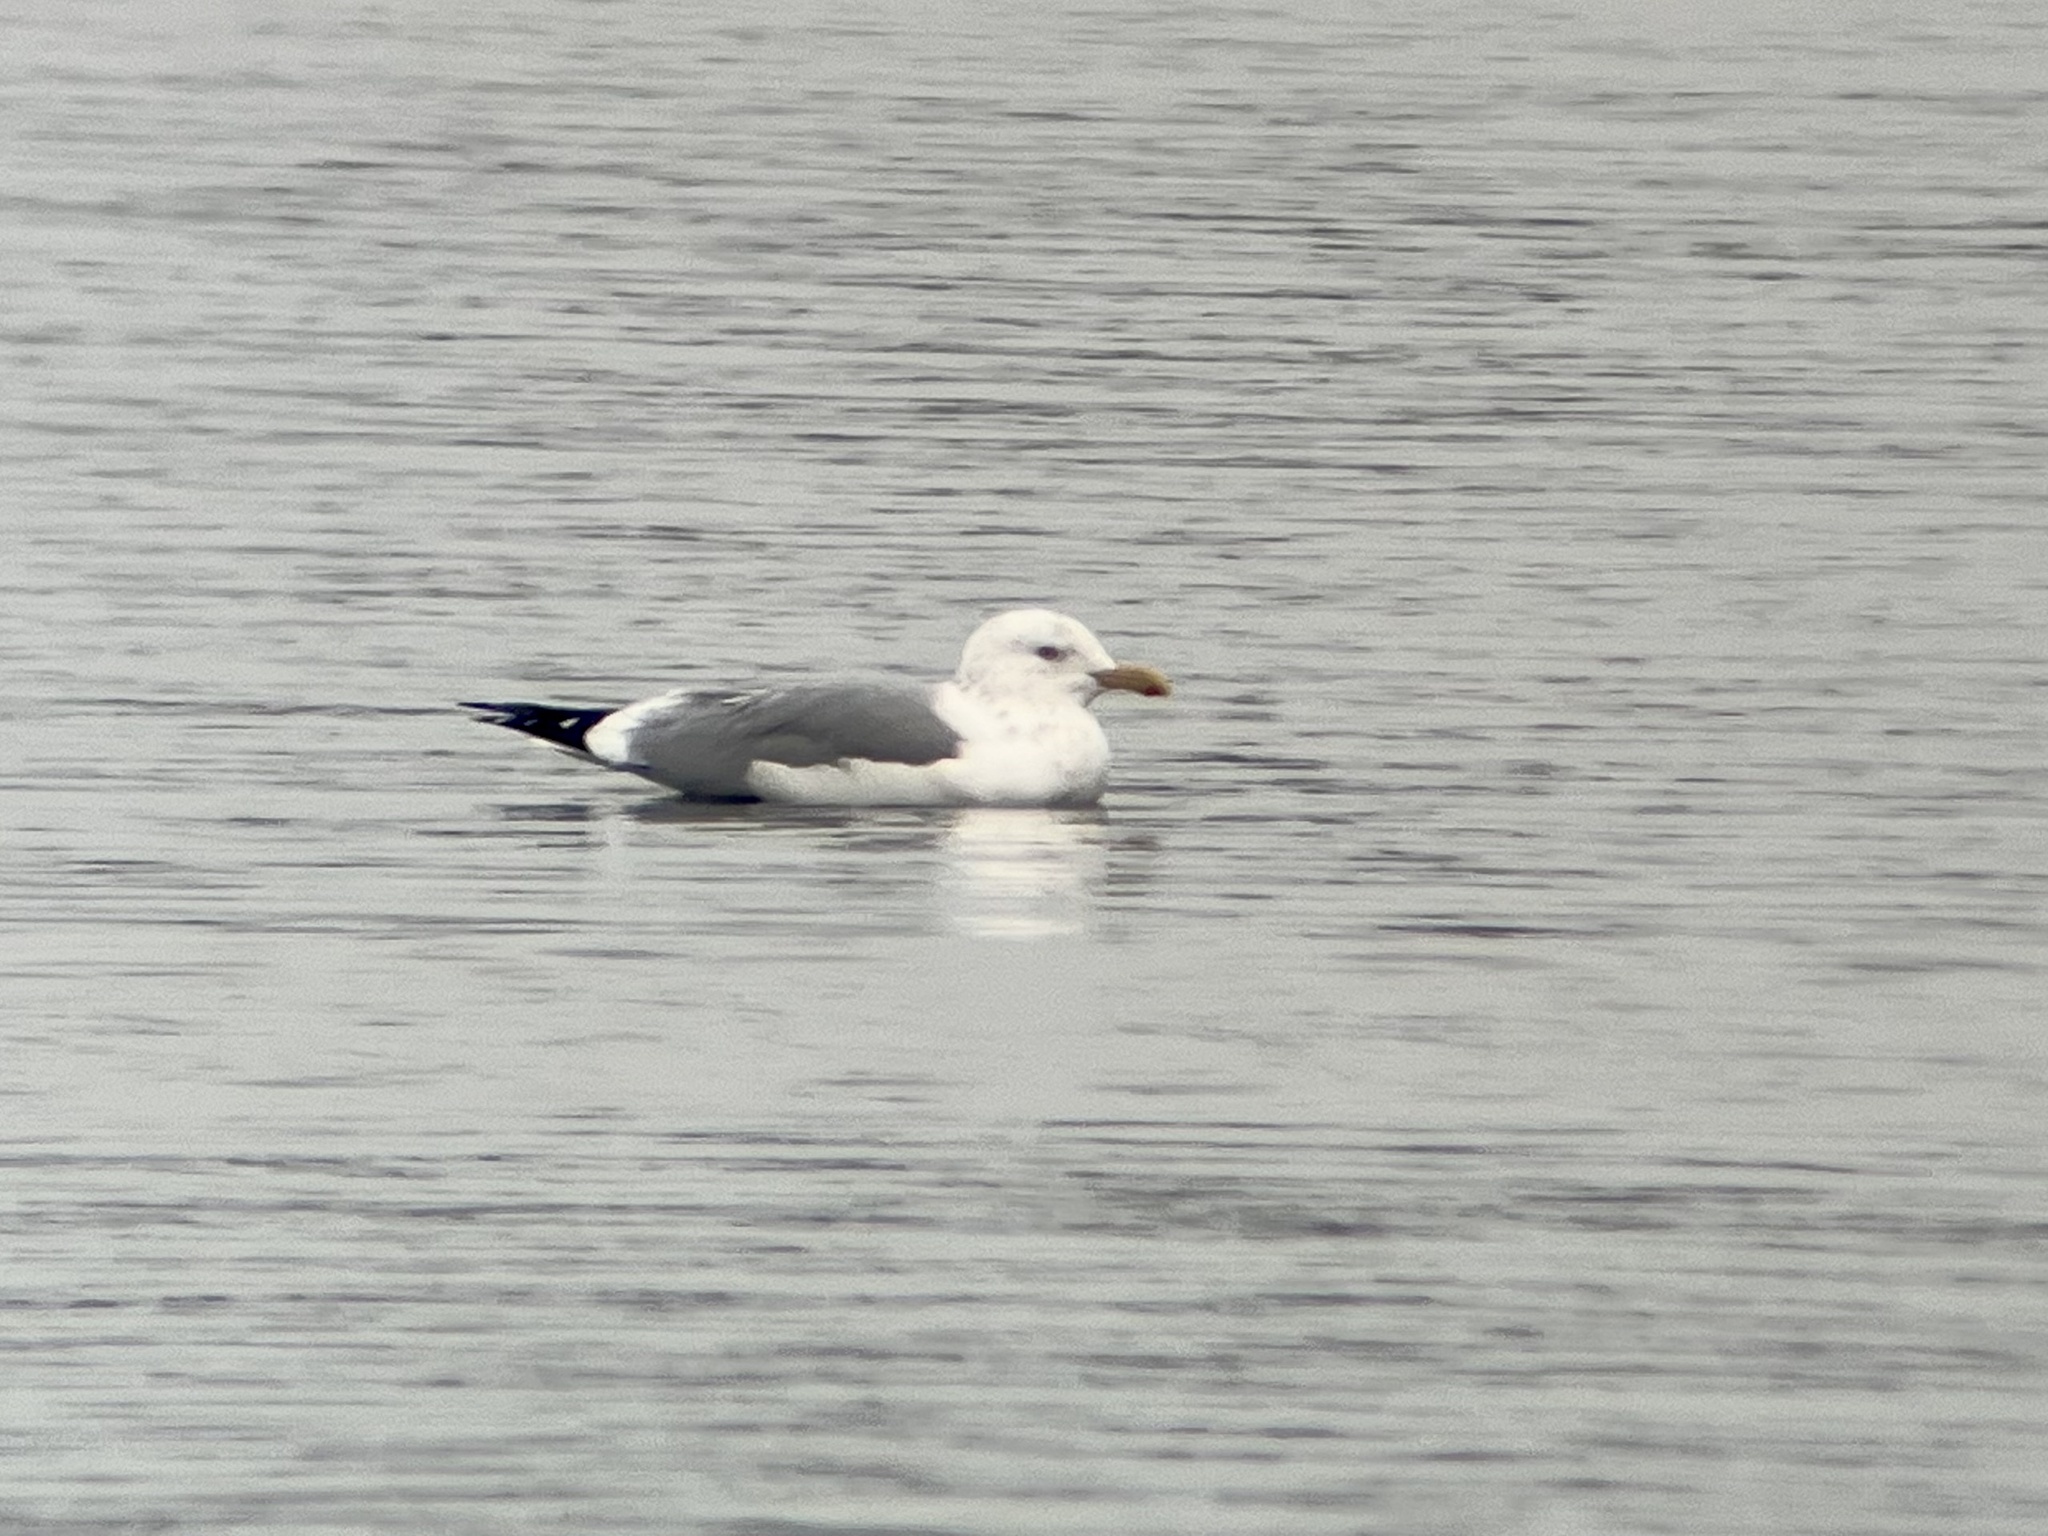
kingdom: Animalia
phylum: Chordata
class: Aves
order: Charadriiformes
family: Laridae
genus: Larus
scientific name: Larus
